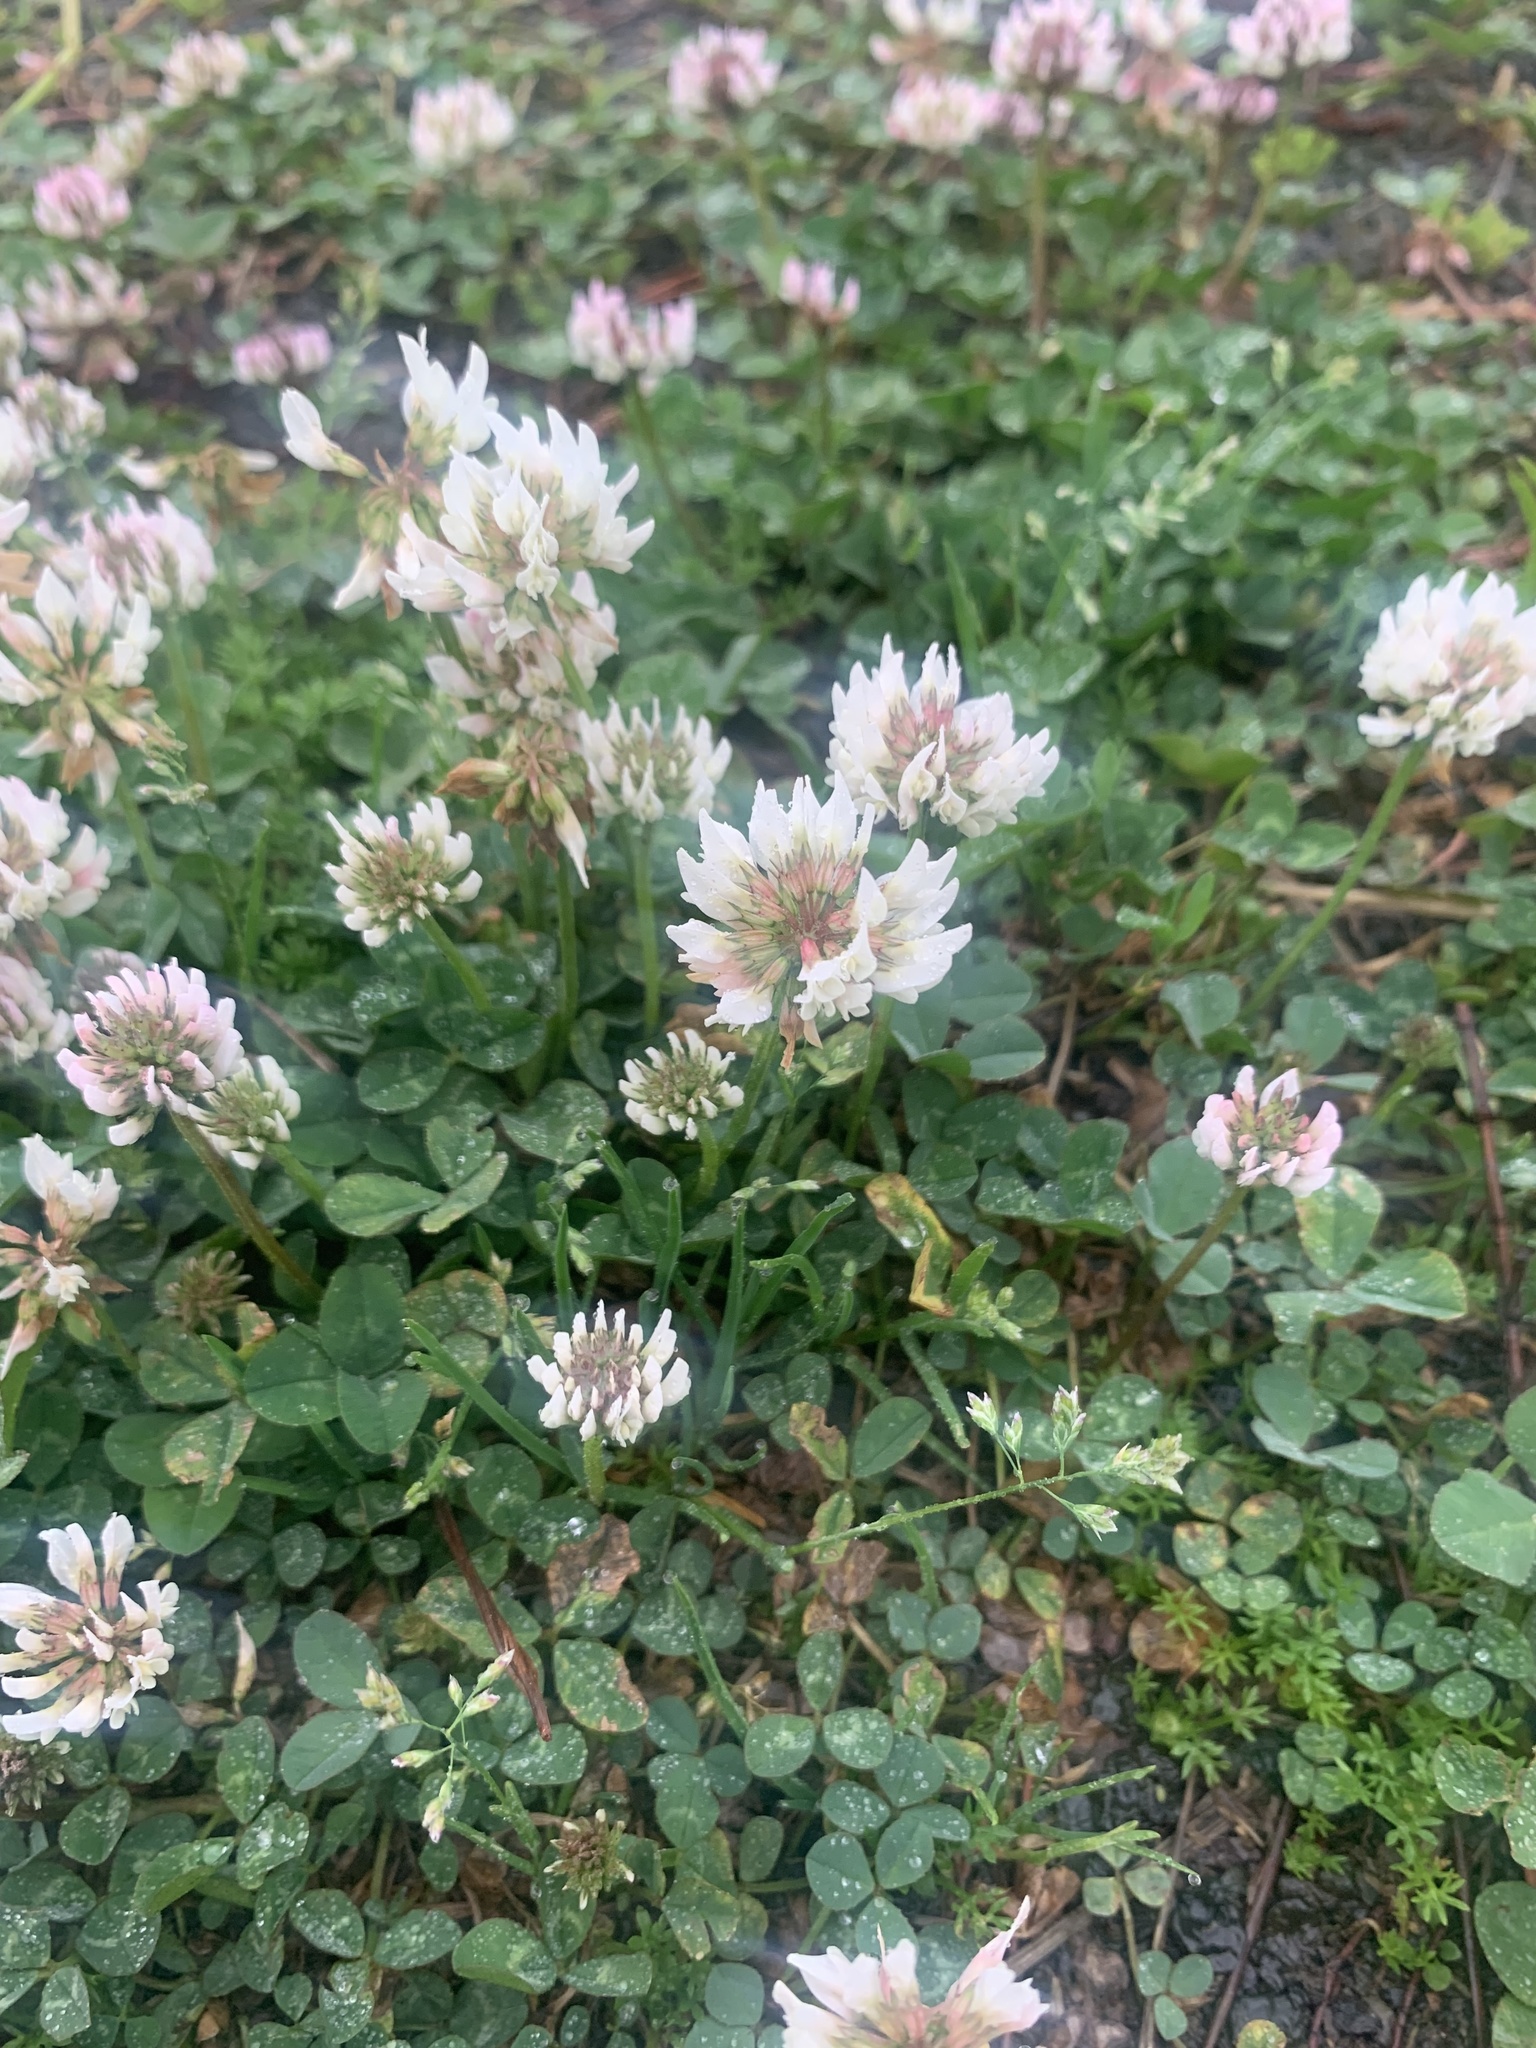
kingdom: Plantae
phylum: Tracheophyta
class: Magnoliopsida
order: Fabales
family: Fabaceae
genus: Trifolium
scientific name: Trifolium repens
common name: White clover
